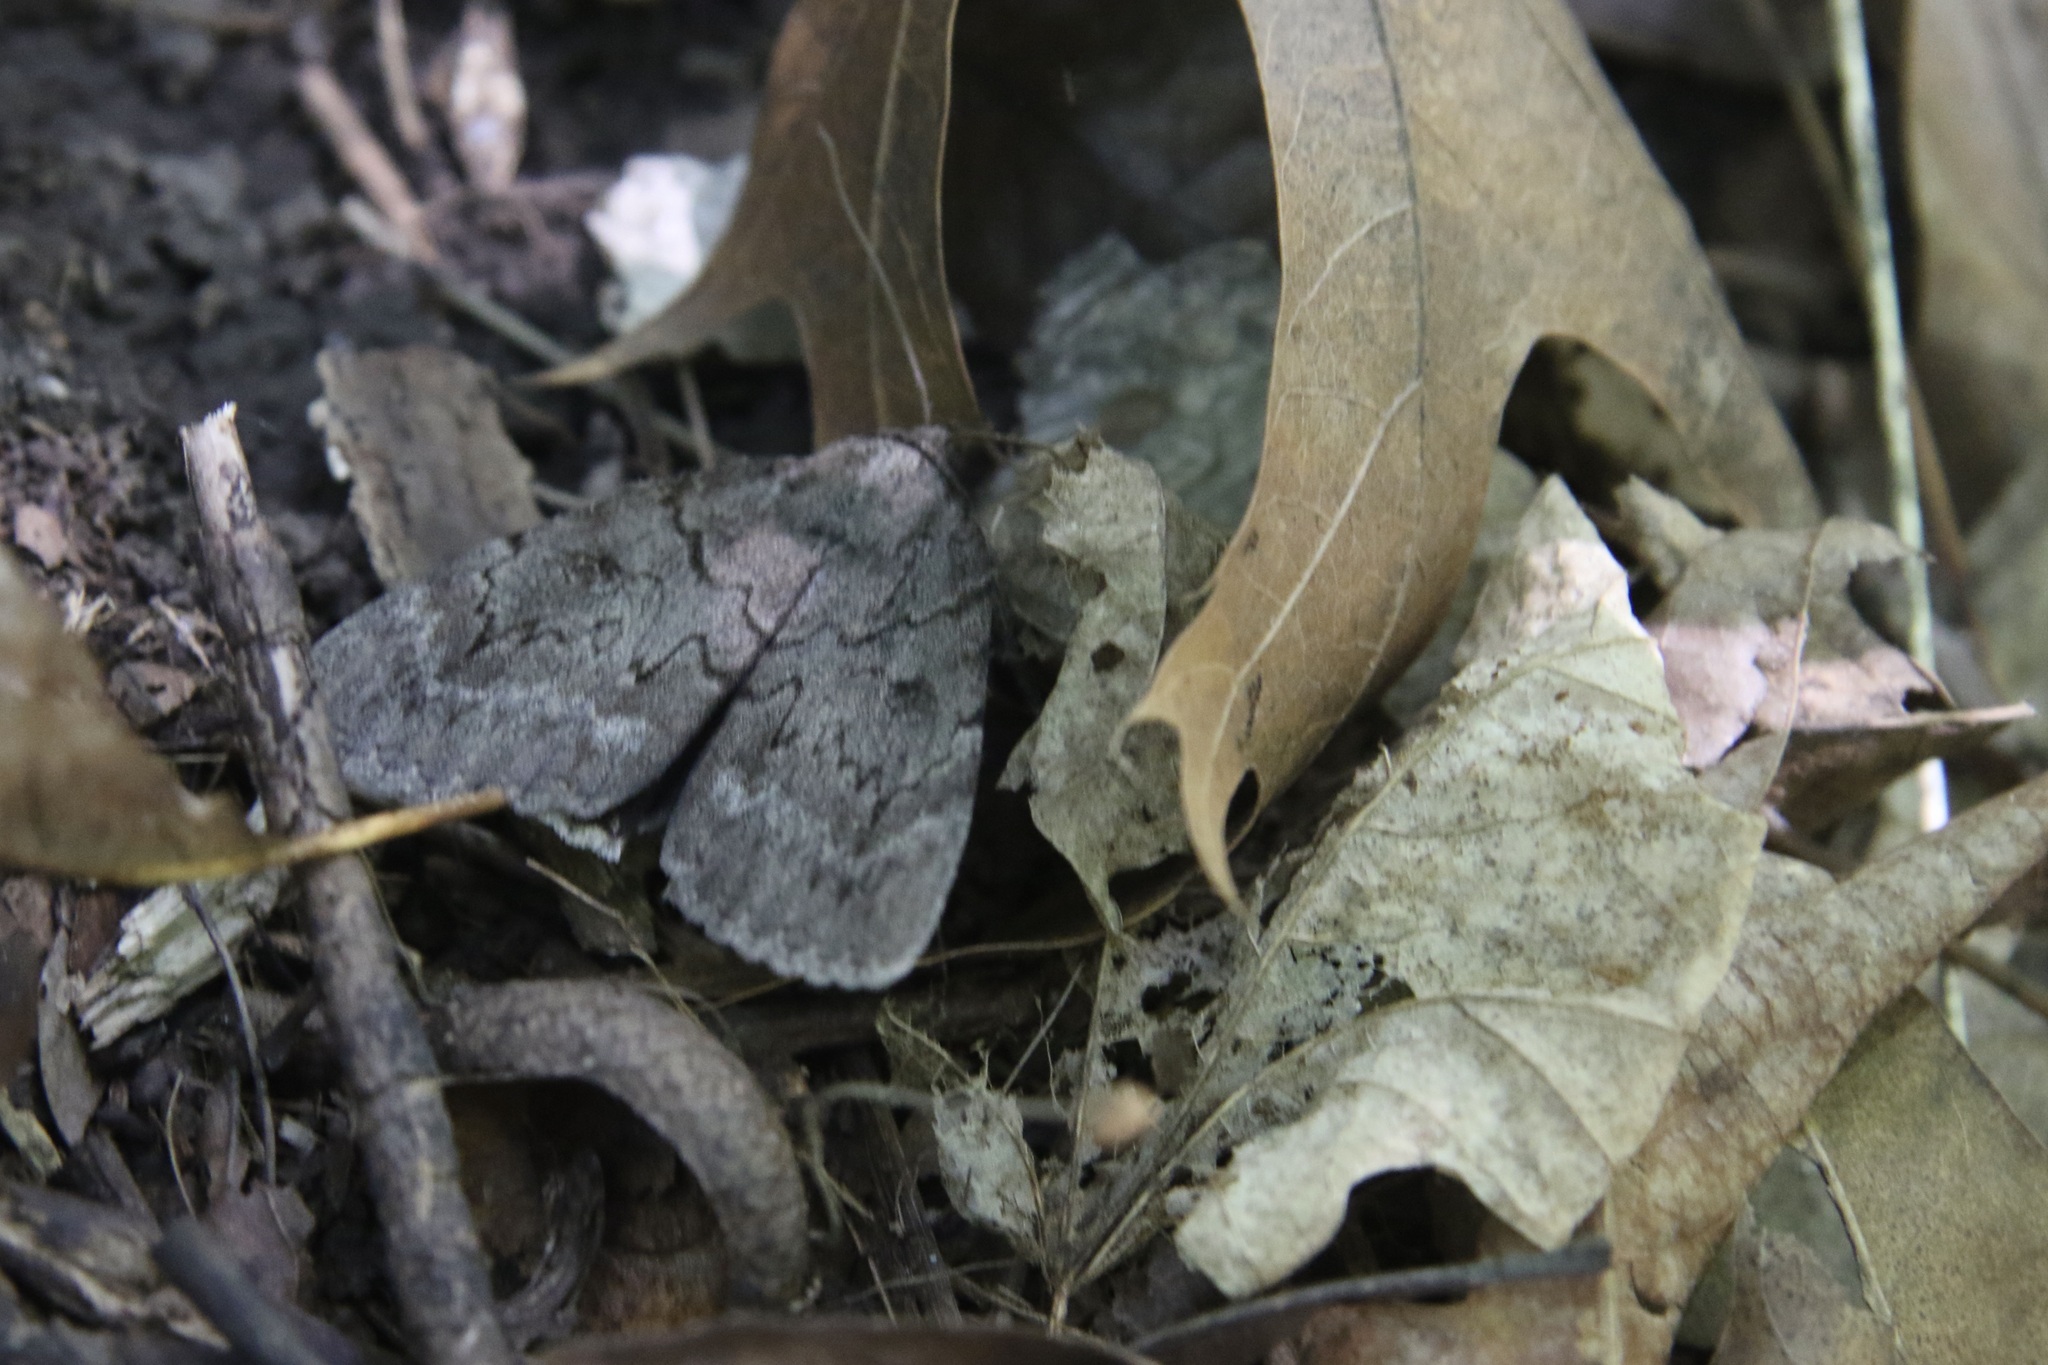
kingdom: Animalia
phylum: Arthropoda
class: Insecta
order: Lepidoptera
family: Erebidae
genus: Catocala
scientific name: Catocala obscura
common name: Obscure underwing moth
